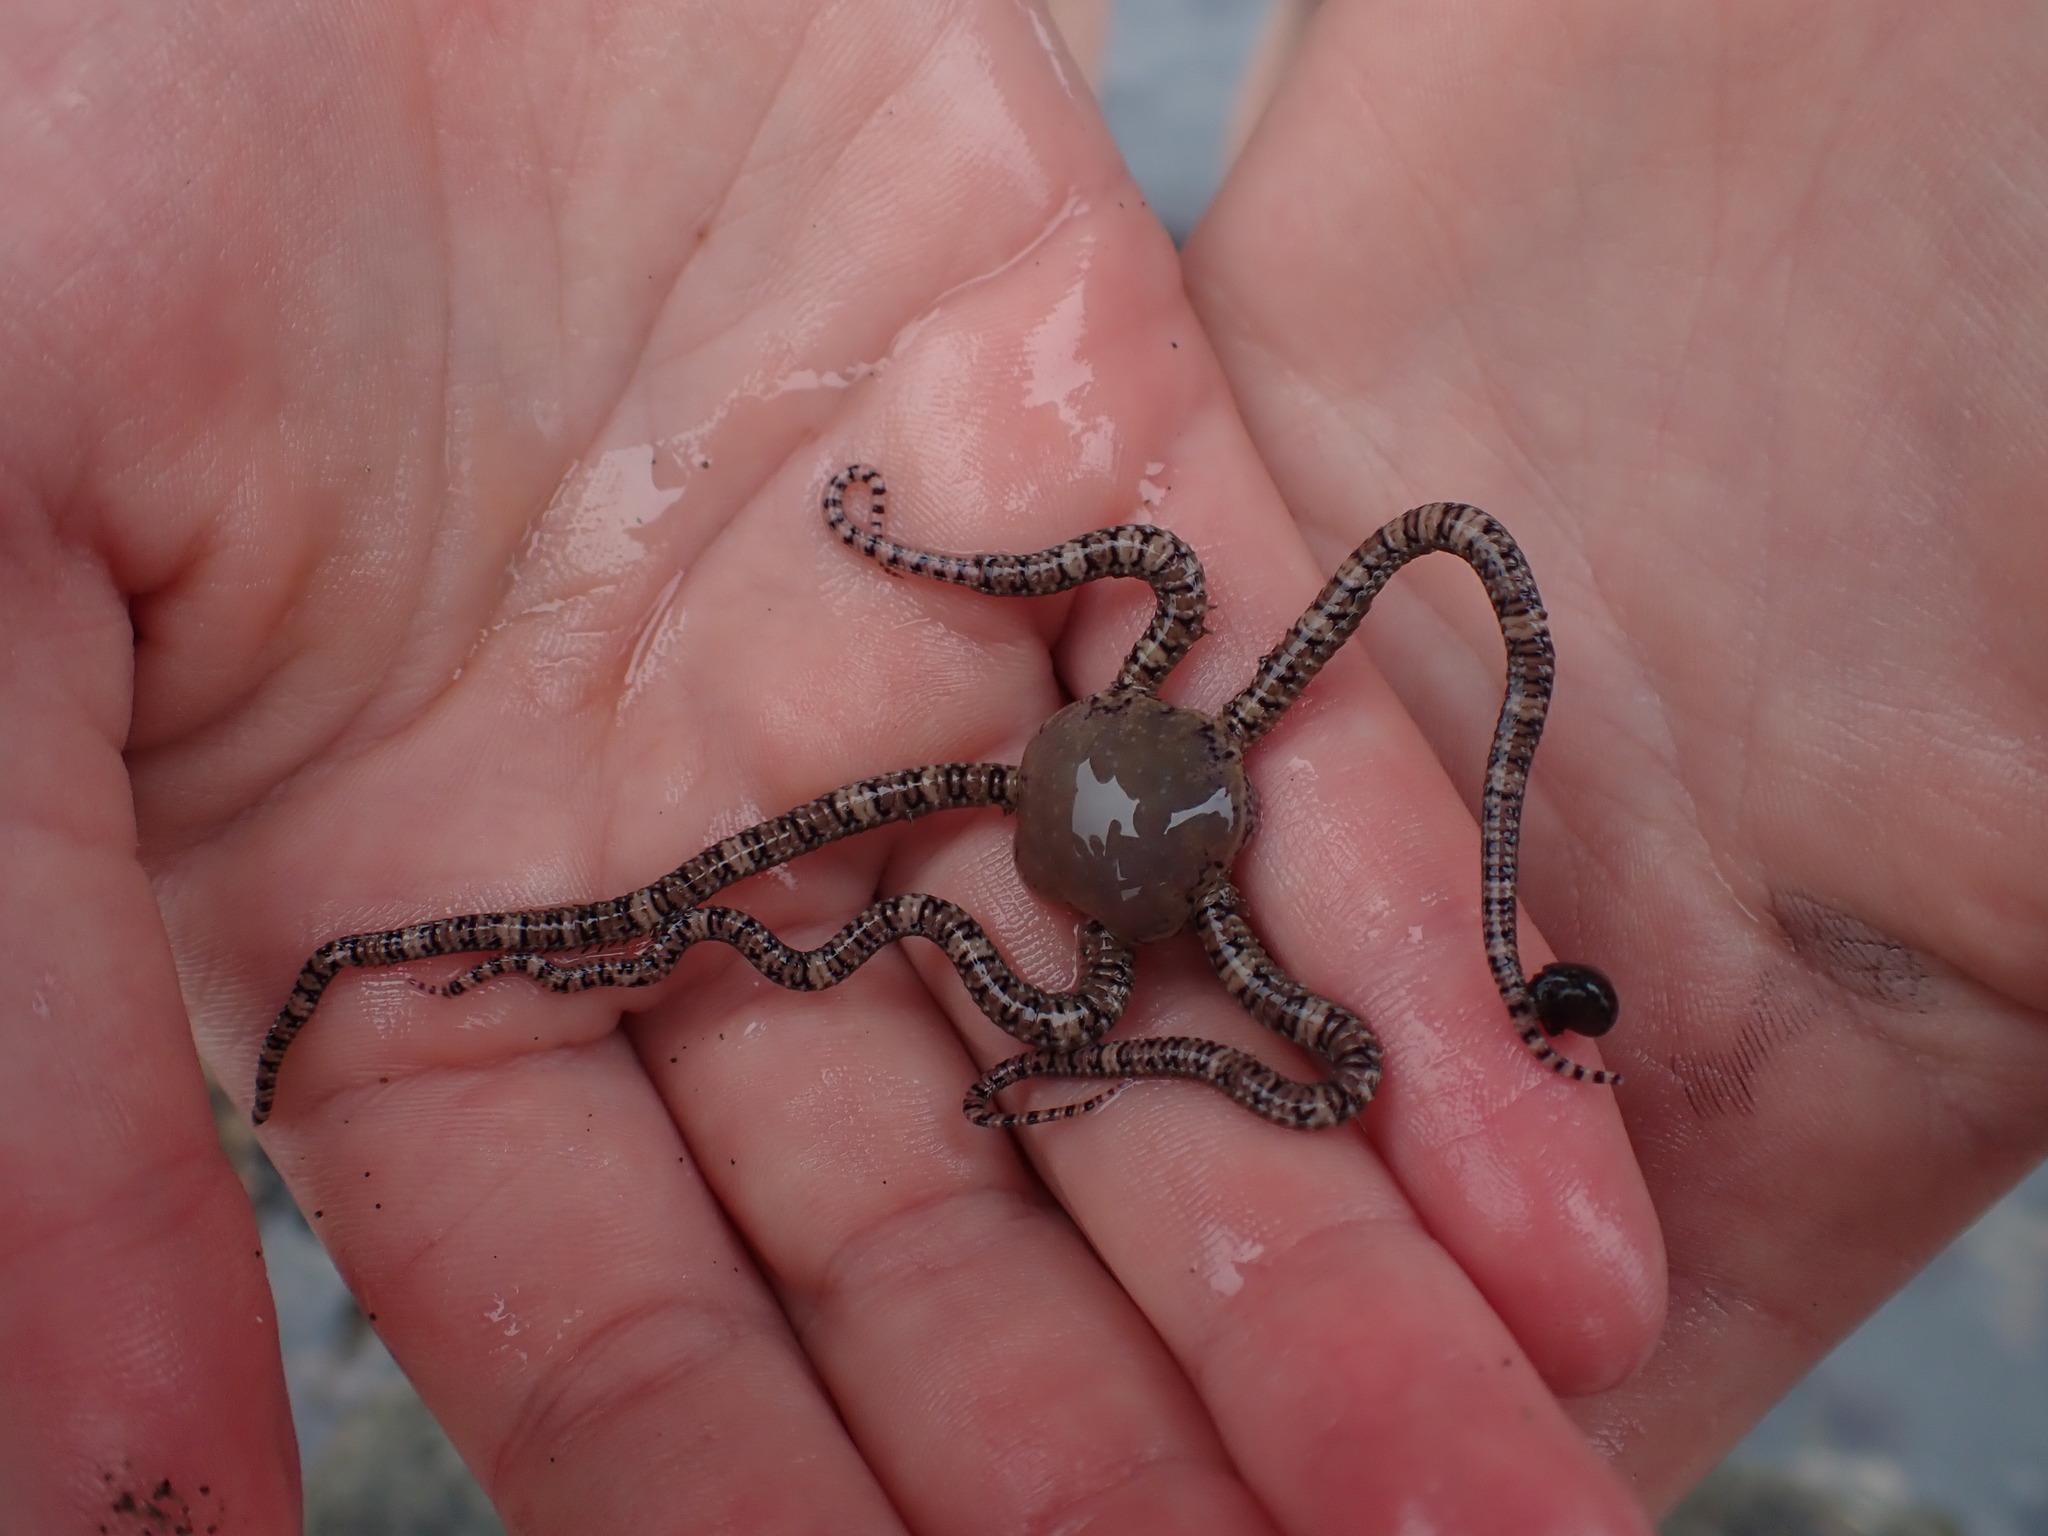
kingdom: Animalia
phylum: Echinodermata
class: Ophiuroidea
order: Amphilepidida
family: Ophionereididae
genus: Ophionereis
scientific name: Ophionereis fasciata
